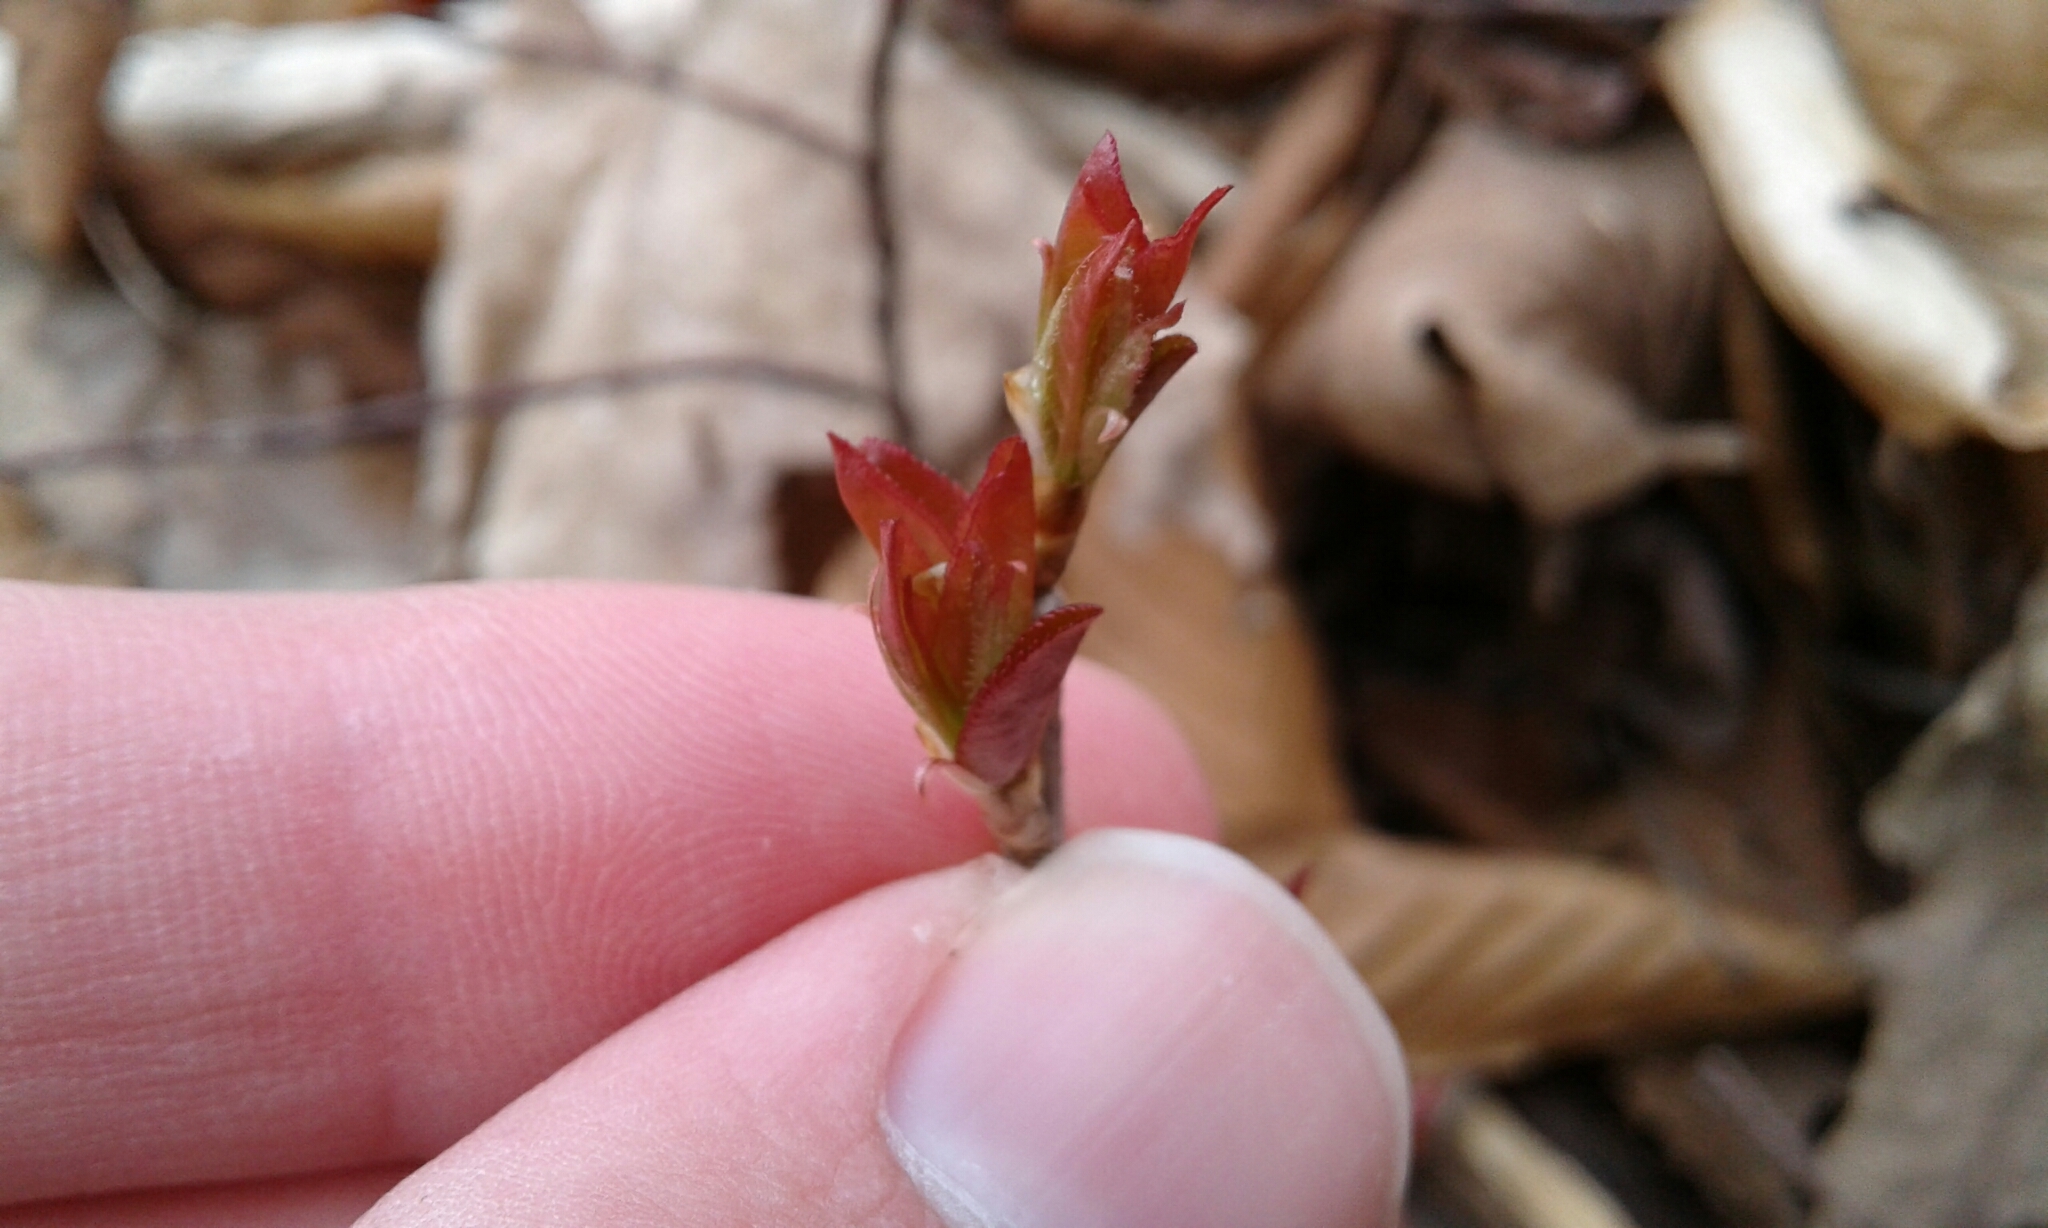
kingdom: Plantae
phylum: Tracheophyta
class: Magnoliopsida
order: Rosales
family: Rosaceae
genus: Prunus
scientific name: Prunus virginiana
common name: Chokecherry
